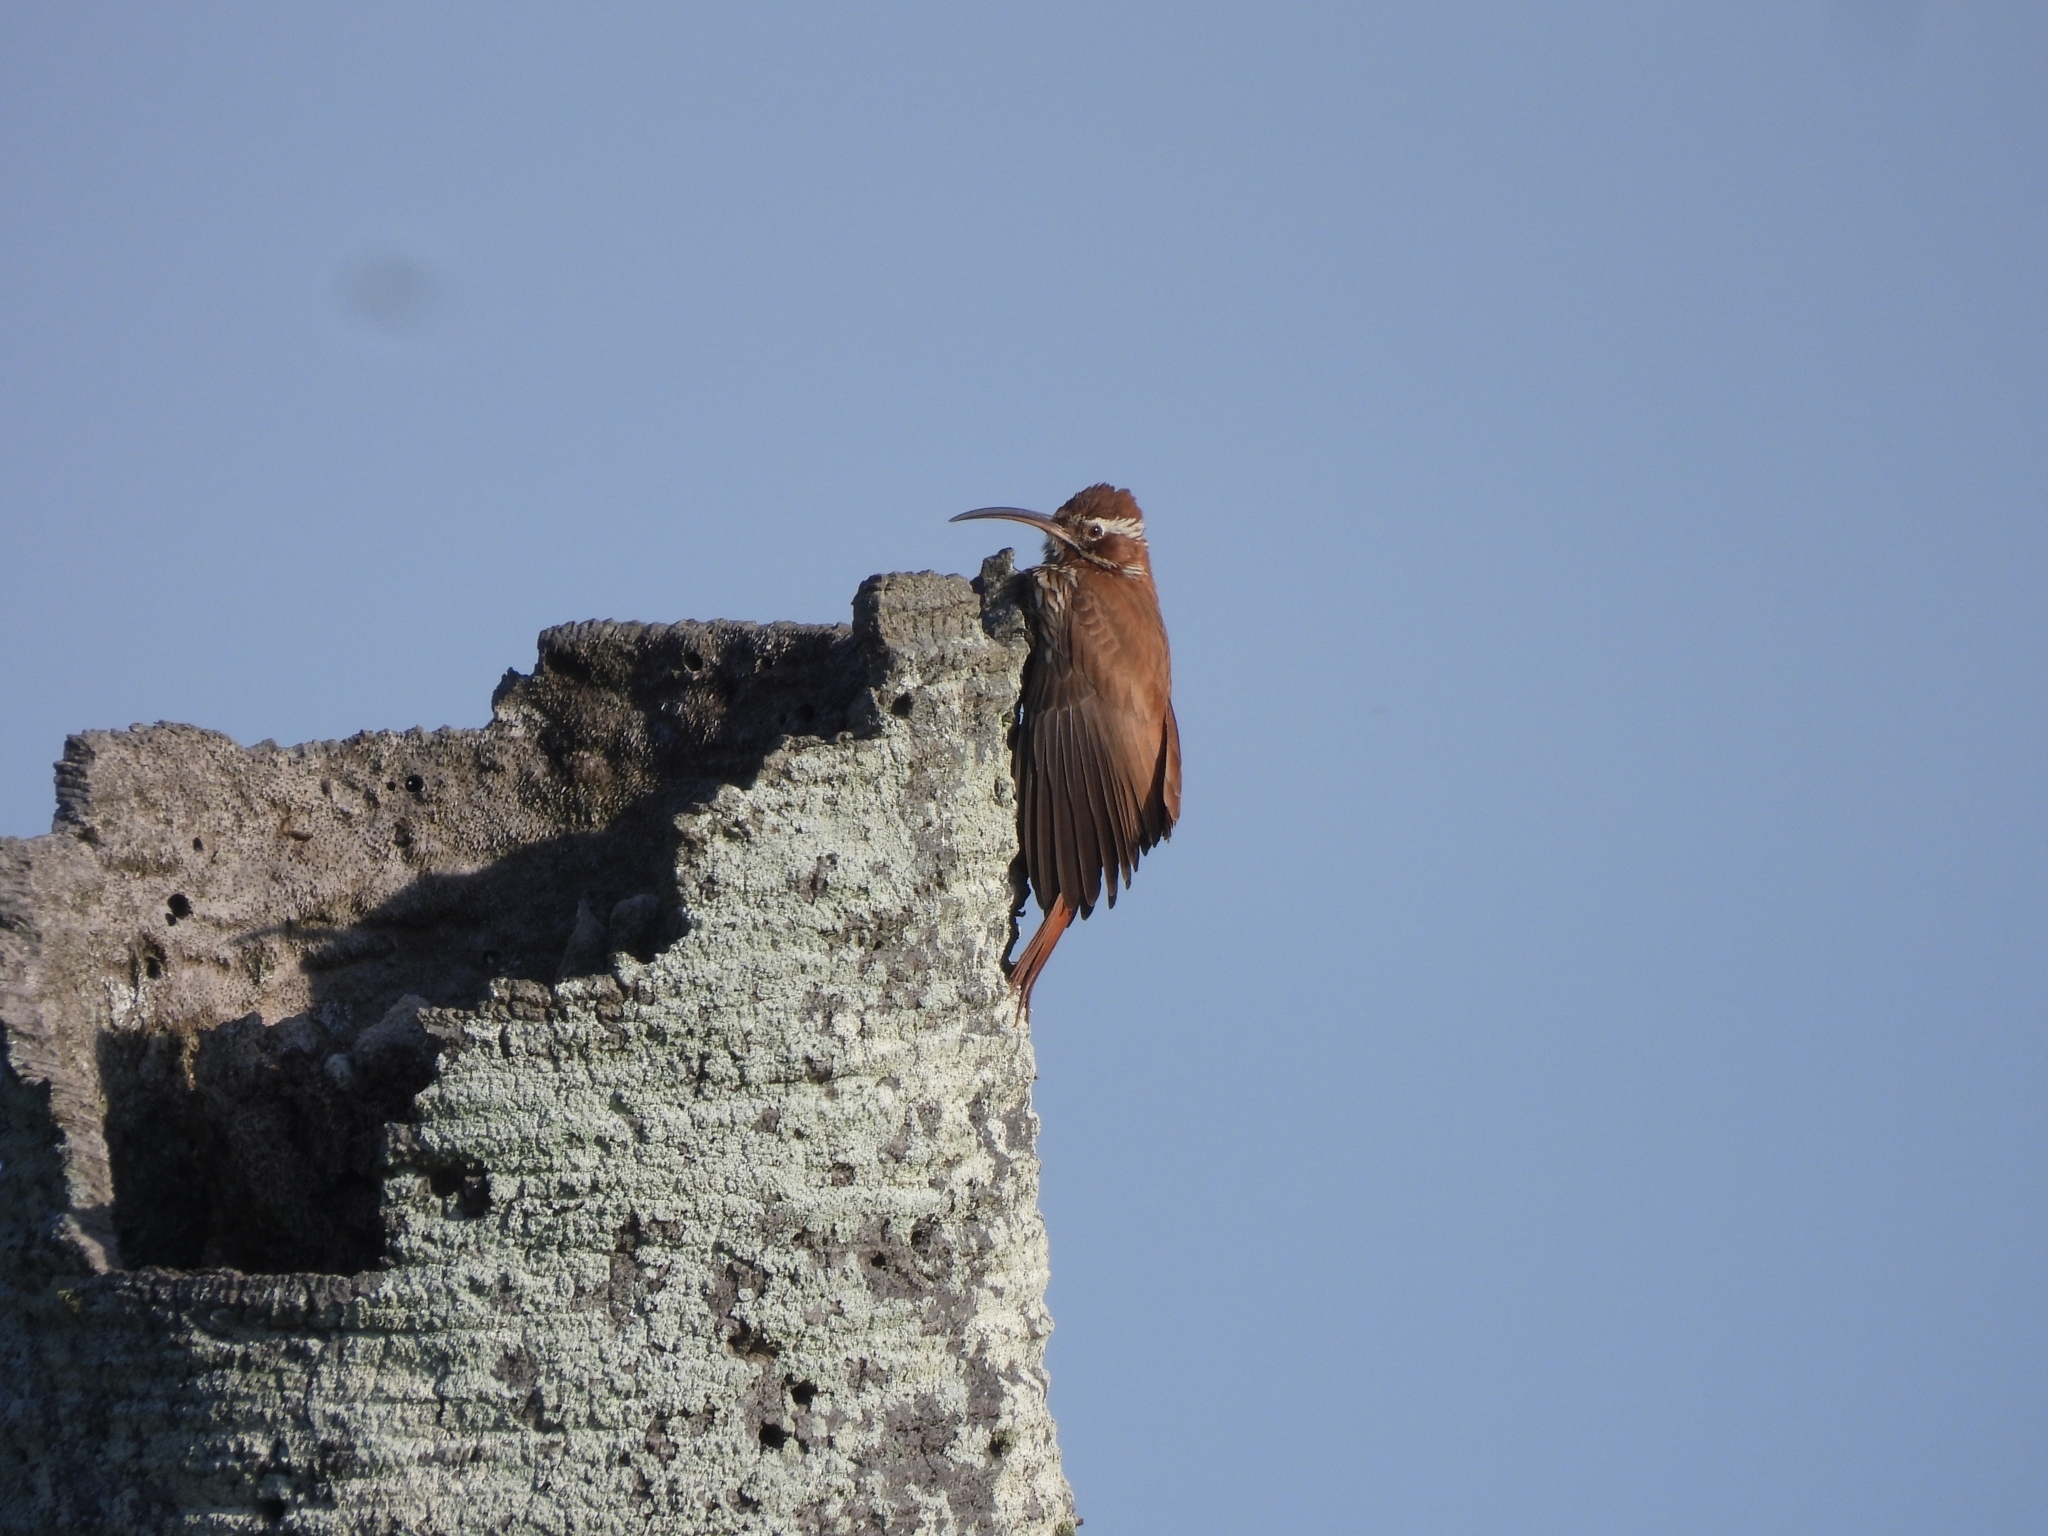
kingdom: Animalia
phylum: Chordata
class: Aves
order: Passeriformes
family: Furnariidae
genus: Drymornis
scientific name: Drymornis bridgesii
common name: Scimitar-billed woodcreeper
